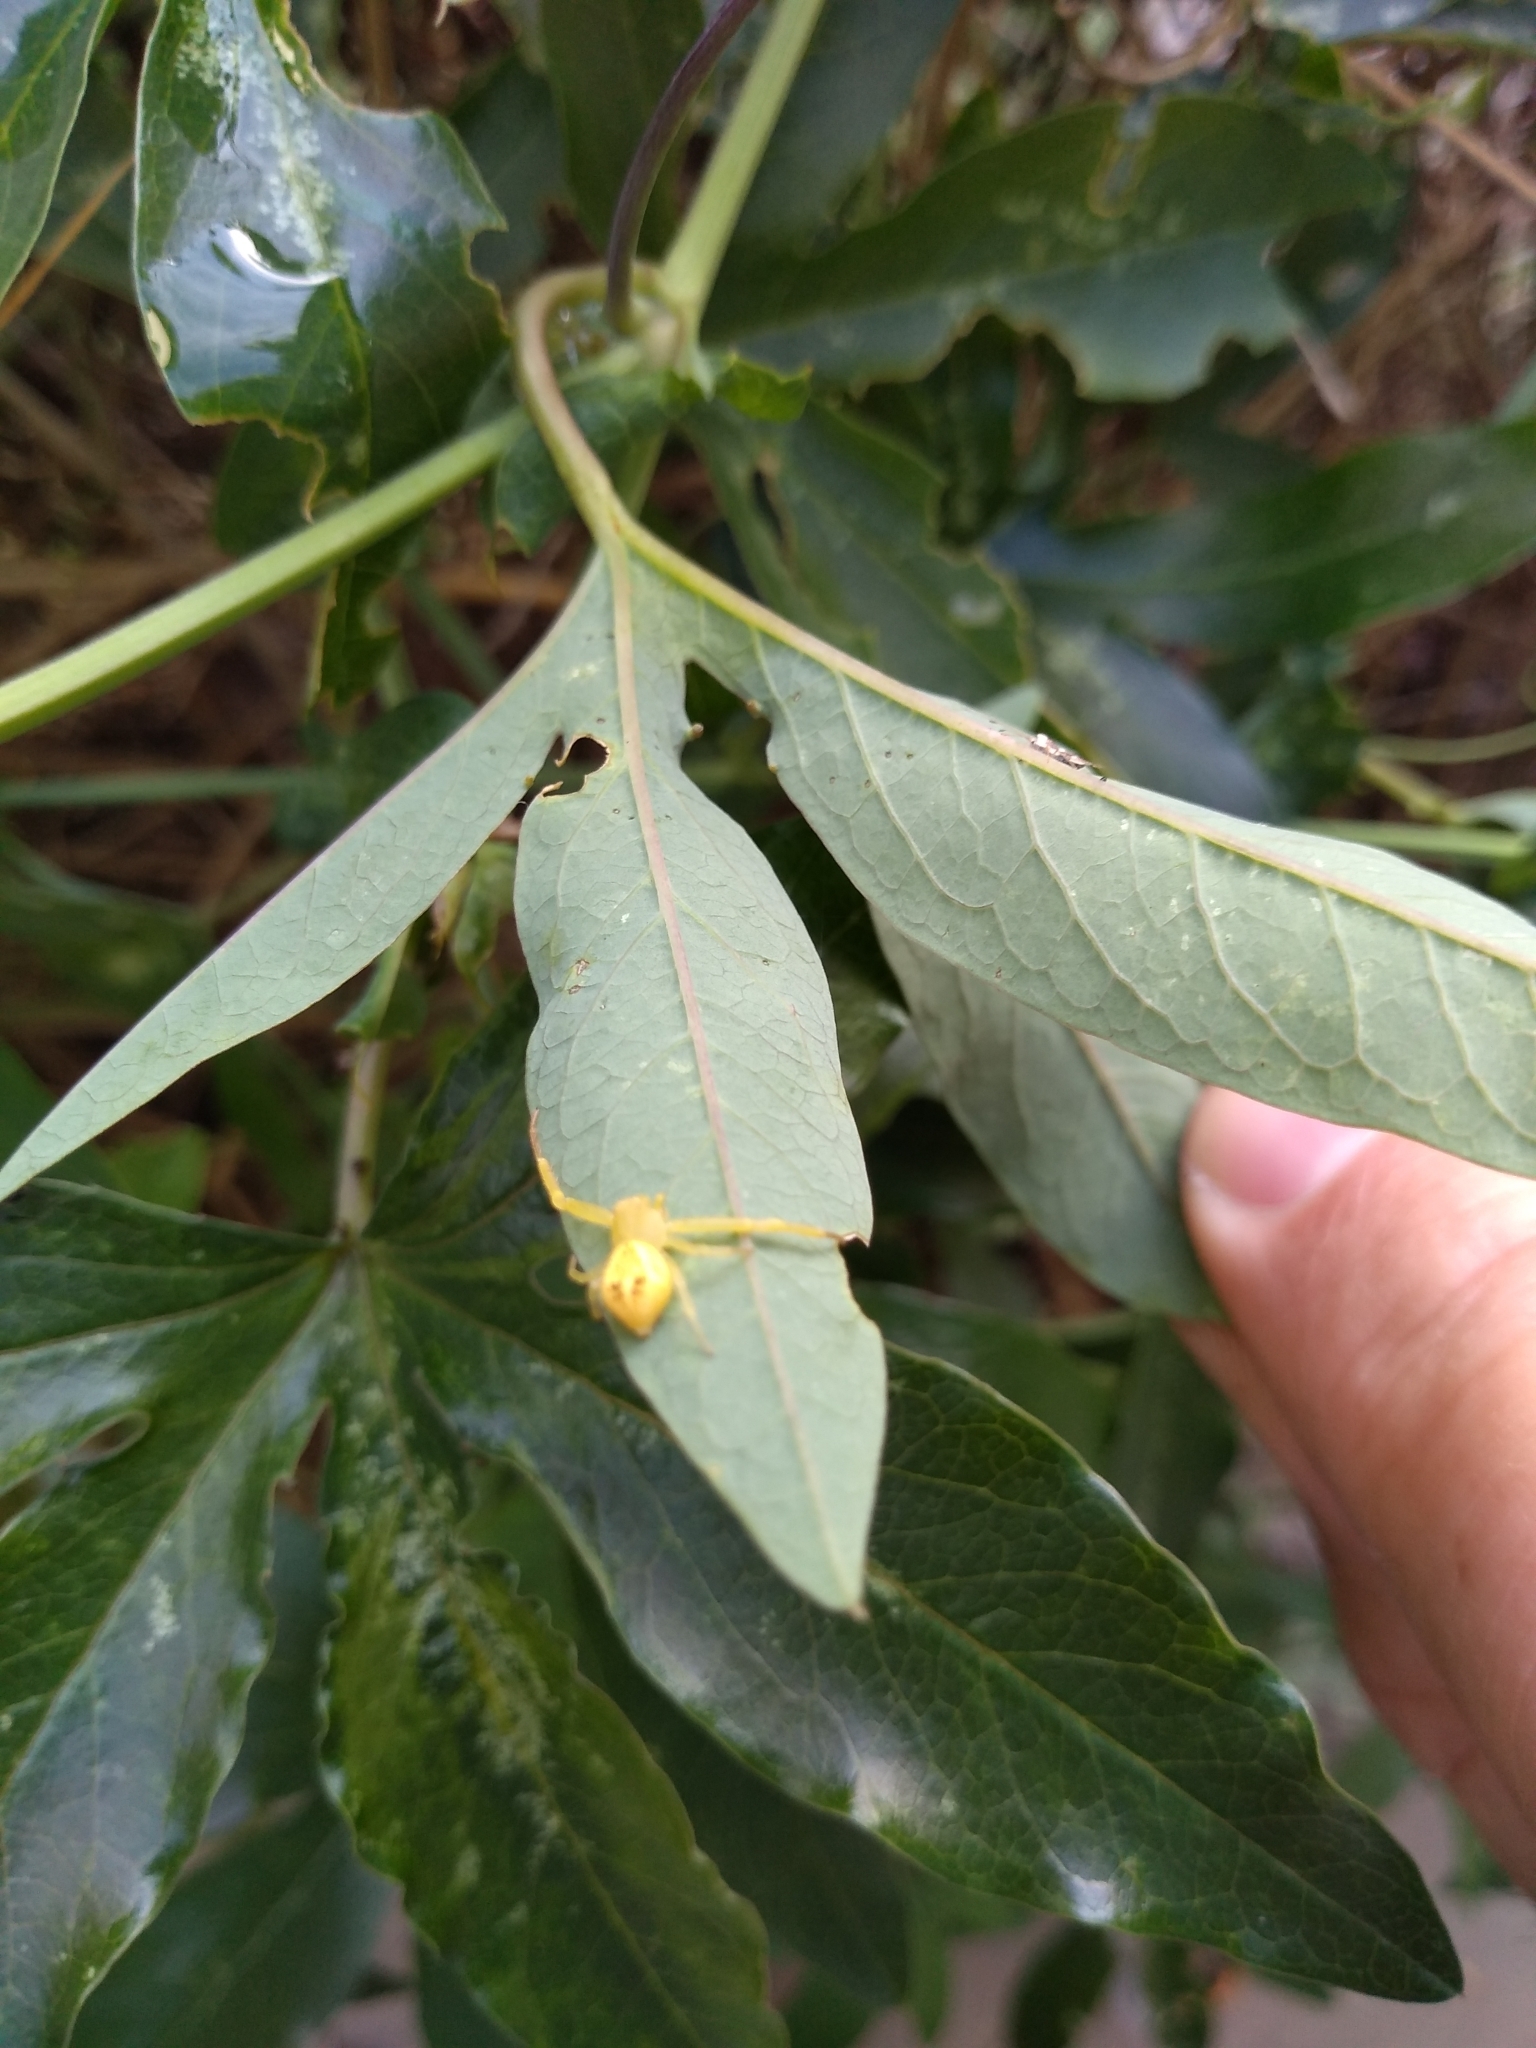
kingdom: Animalia
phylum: Arthropoda
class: Arachnida
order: Araneae
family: Thomisidae
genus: Misumenops
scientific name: Misumenops
